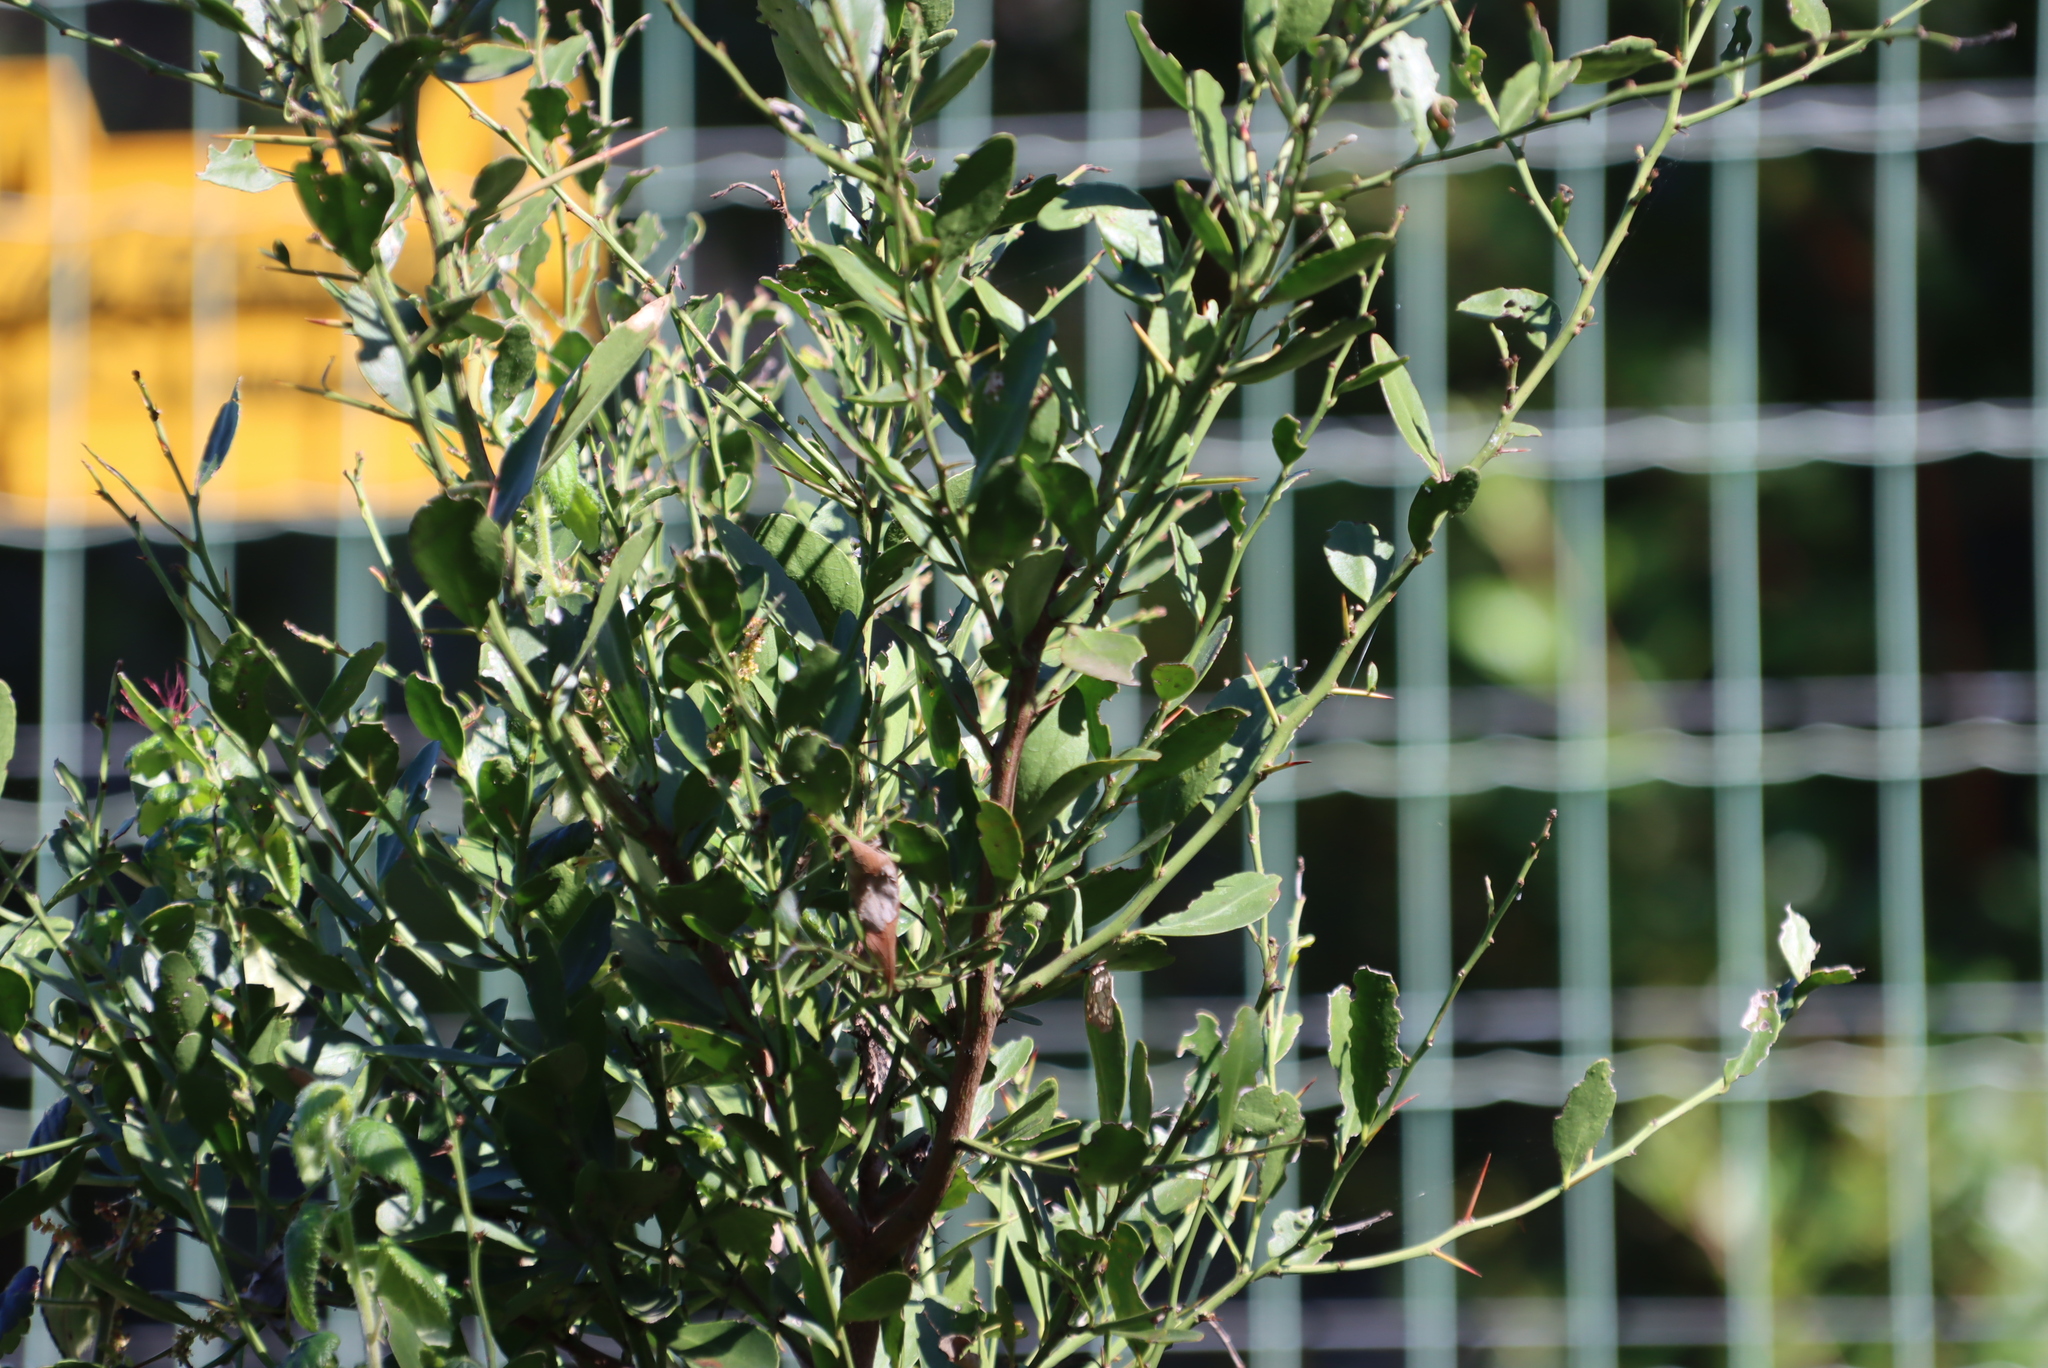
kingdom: Plantae
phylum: Tracheophyta
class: Magnoliopsida
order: Celastrales
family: Celastraceae
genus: Gymnosporia
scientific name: Gymnosporia buxifolia
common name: Common spike-thorn
